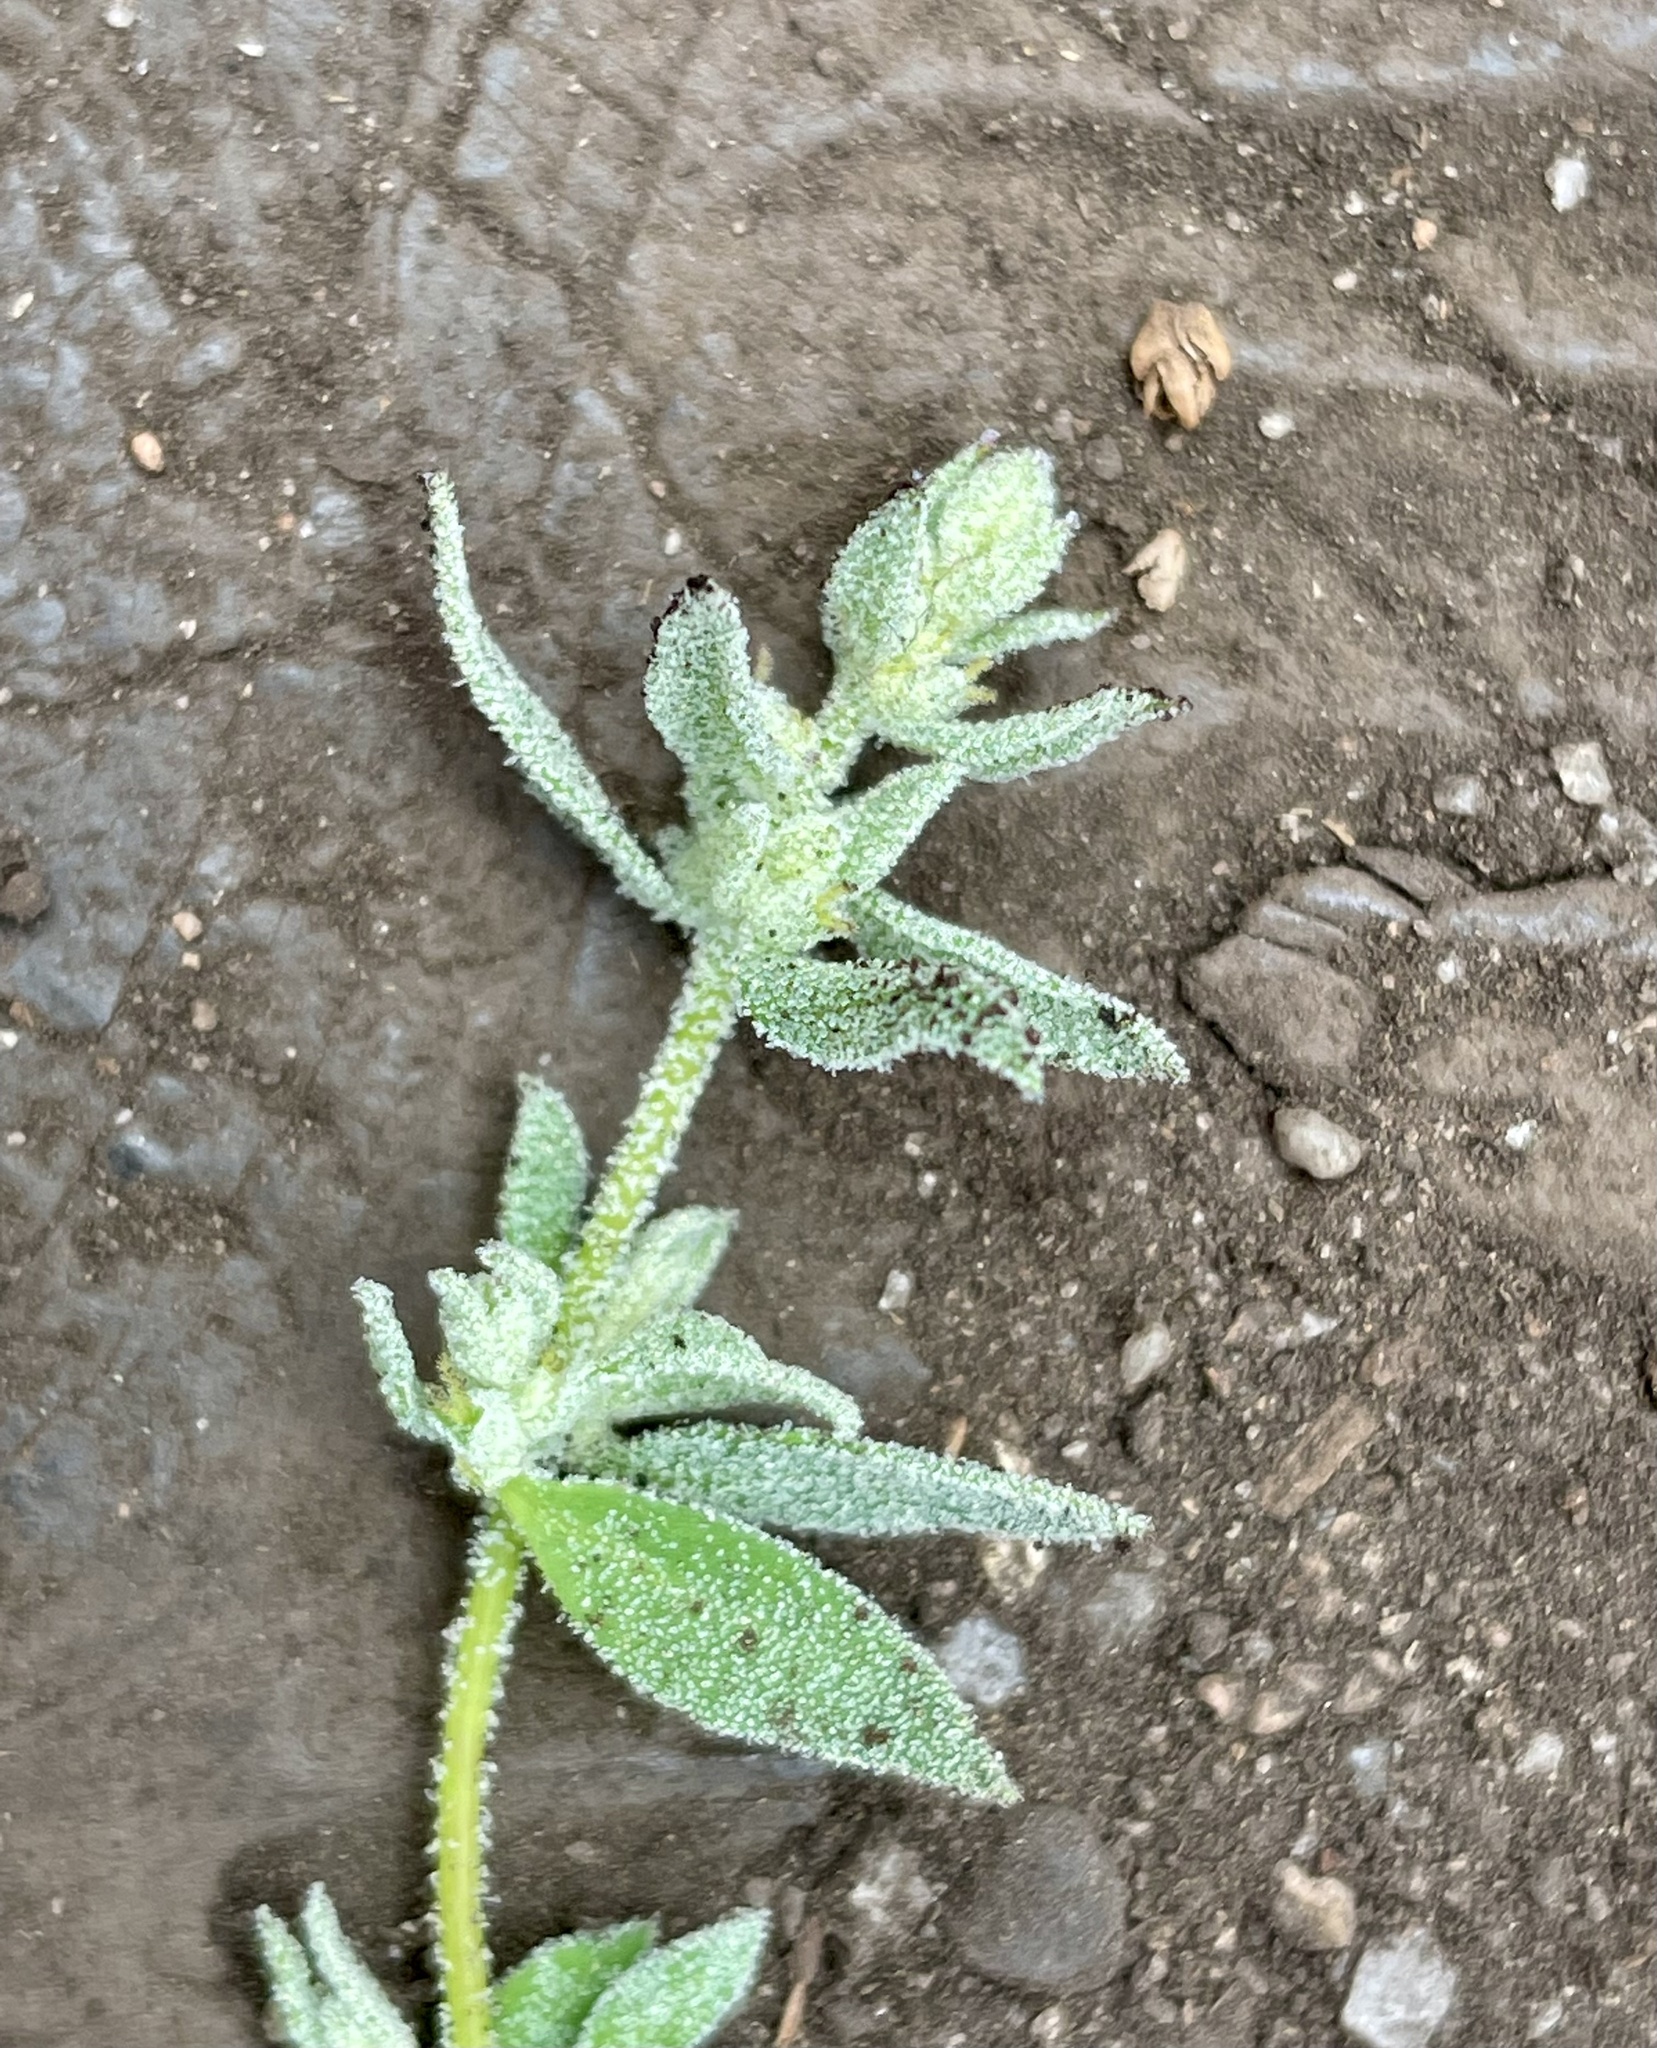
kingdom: Plantae
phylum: Tracheophyta
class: Magnoliopsida
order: Caryophyllales
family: Amaranthaceae
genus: Extriplex
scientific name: Extriplex californica
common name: California saltbush
